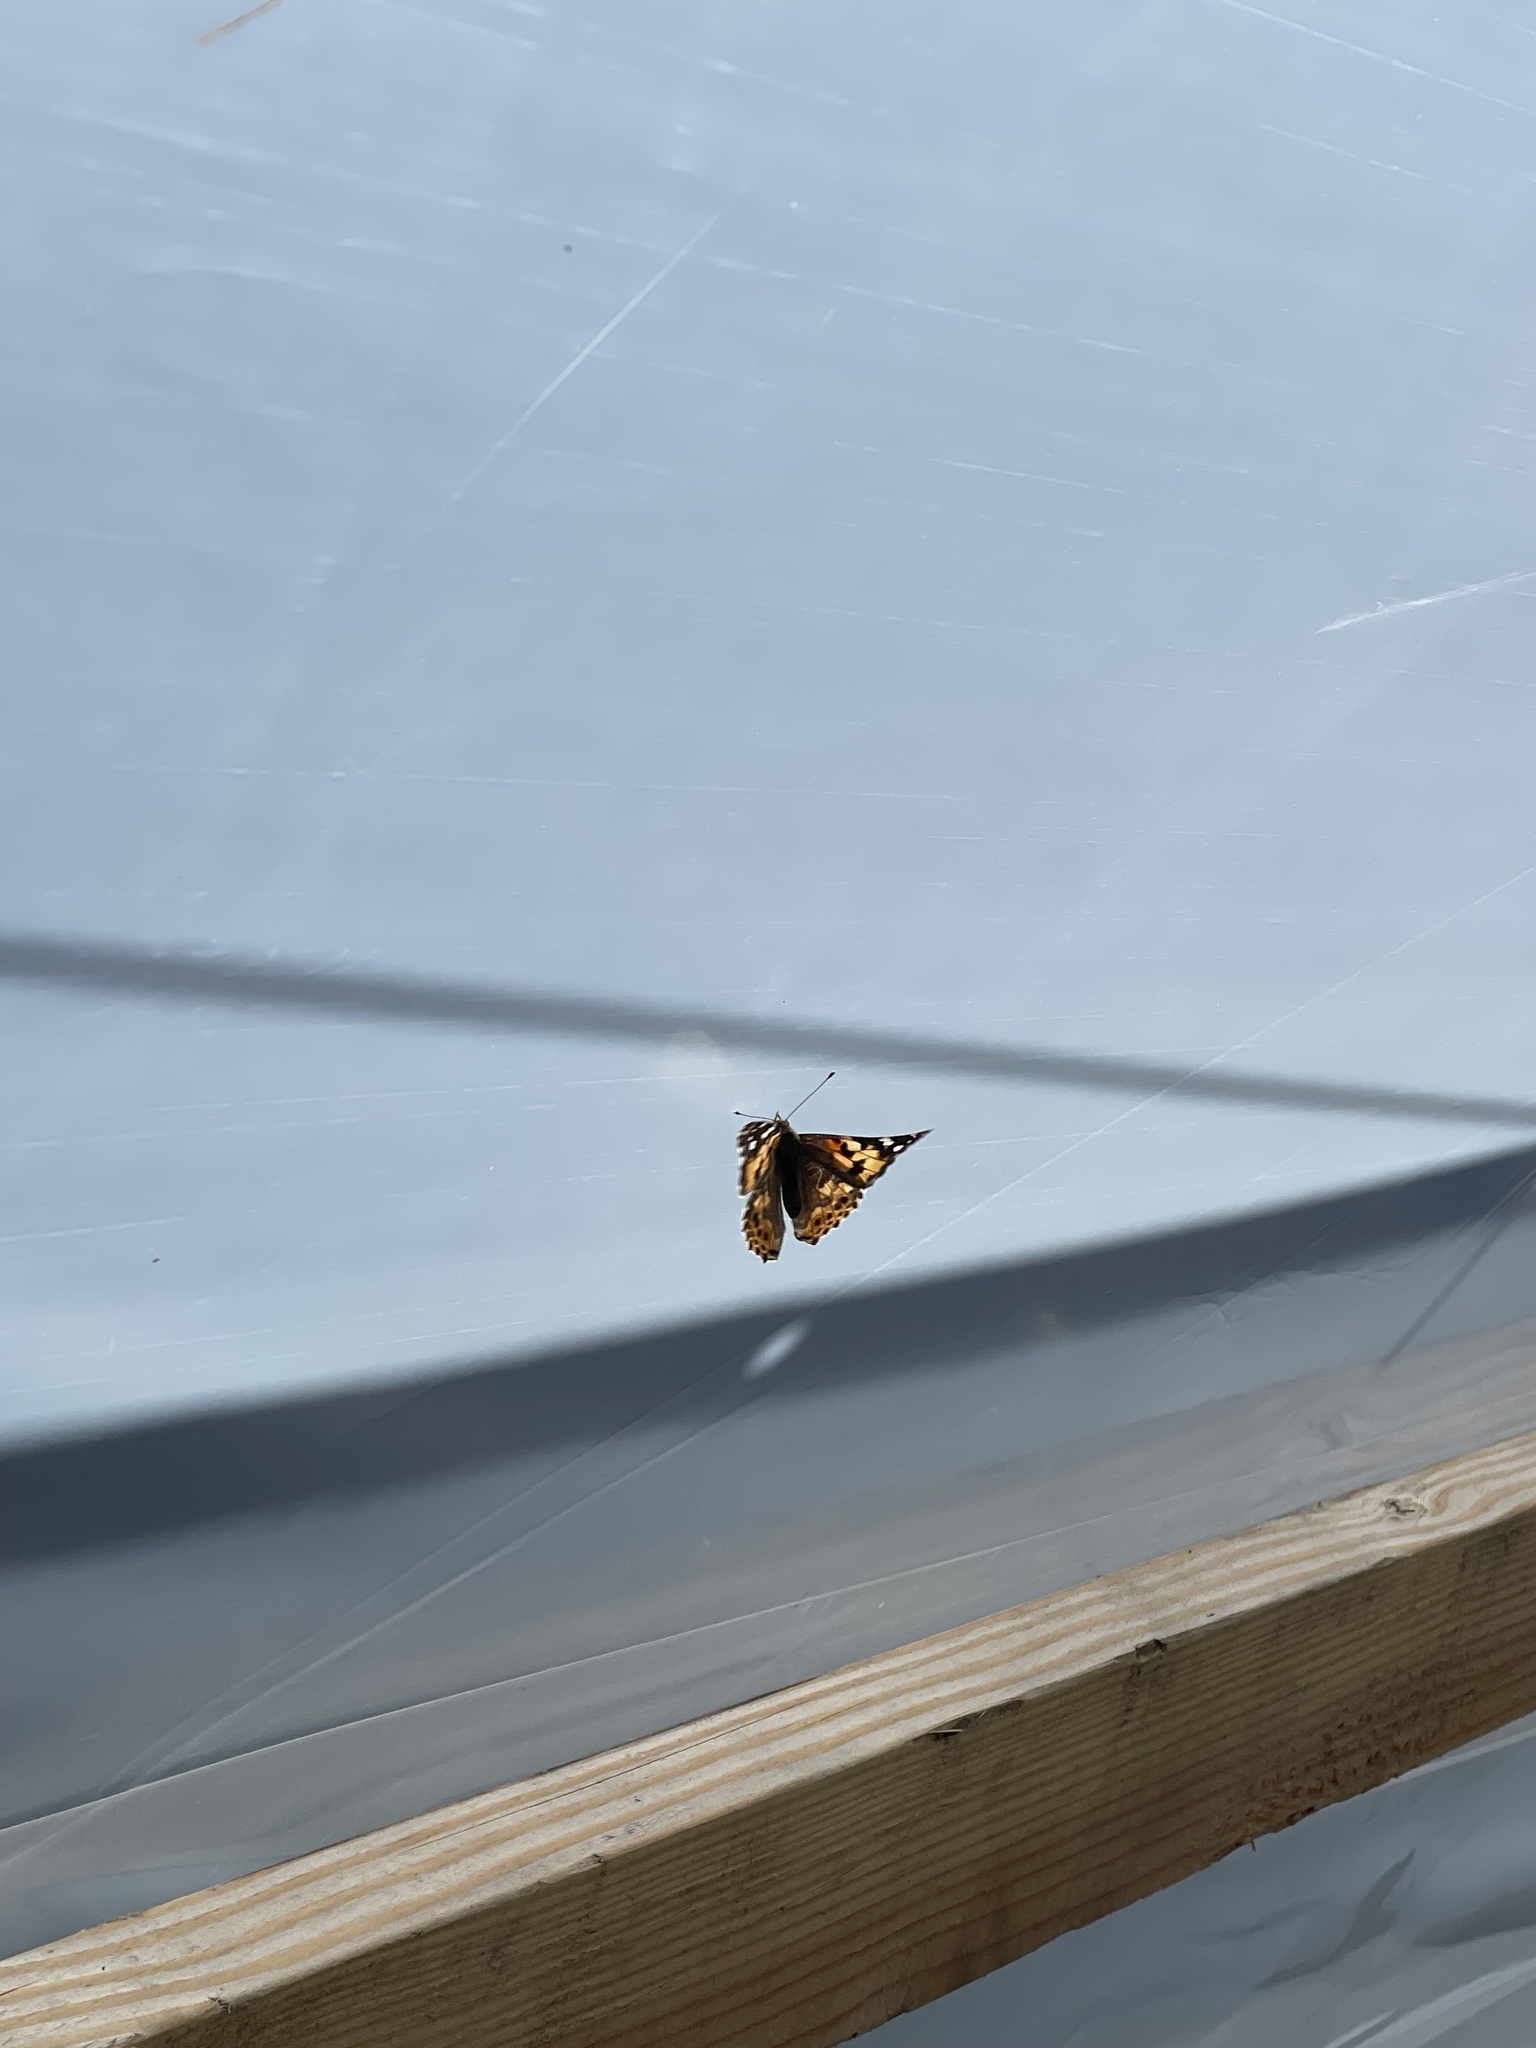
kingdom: Animalia
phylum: Arthropoda
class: Insecta
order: Lepidoptera
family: Nymphalidae
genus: Vanessa
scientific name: Vanessa cardui
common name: Painted lady
